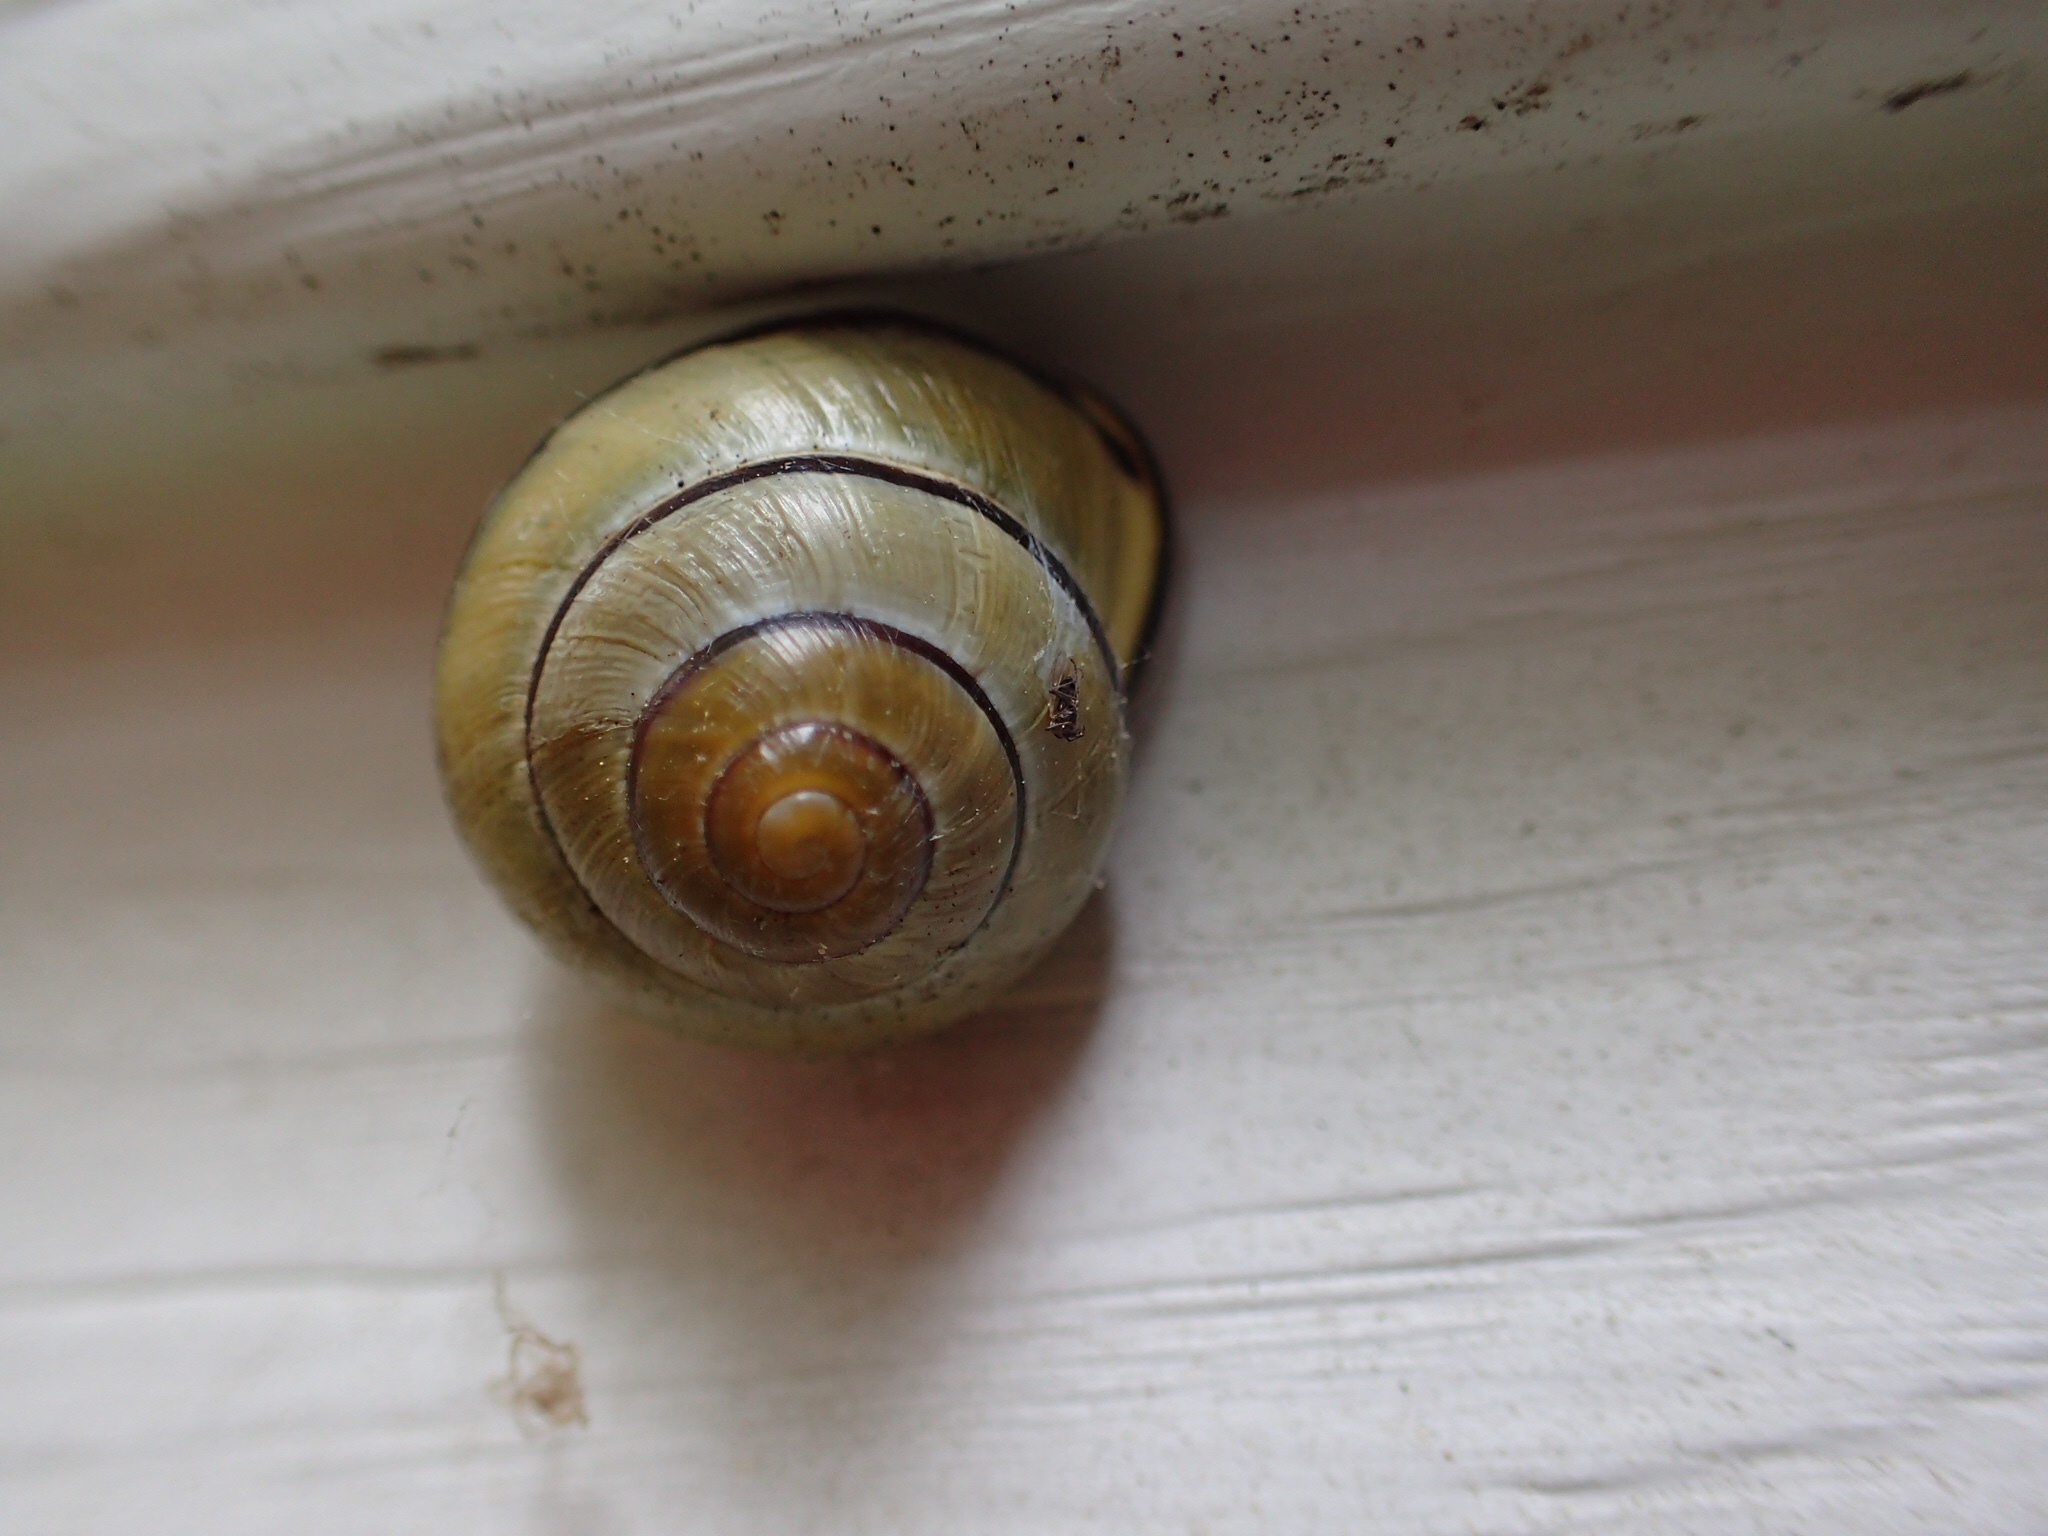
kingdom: Animalia
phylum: Mollusca
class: Gastropoda
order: Stylommatophora
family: Helicidae
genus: Cepaea
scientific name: Cepaea nemoralis
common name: Grovesnail
